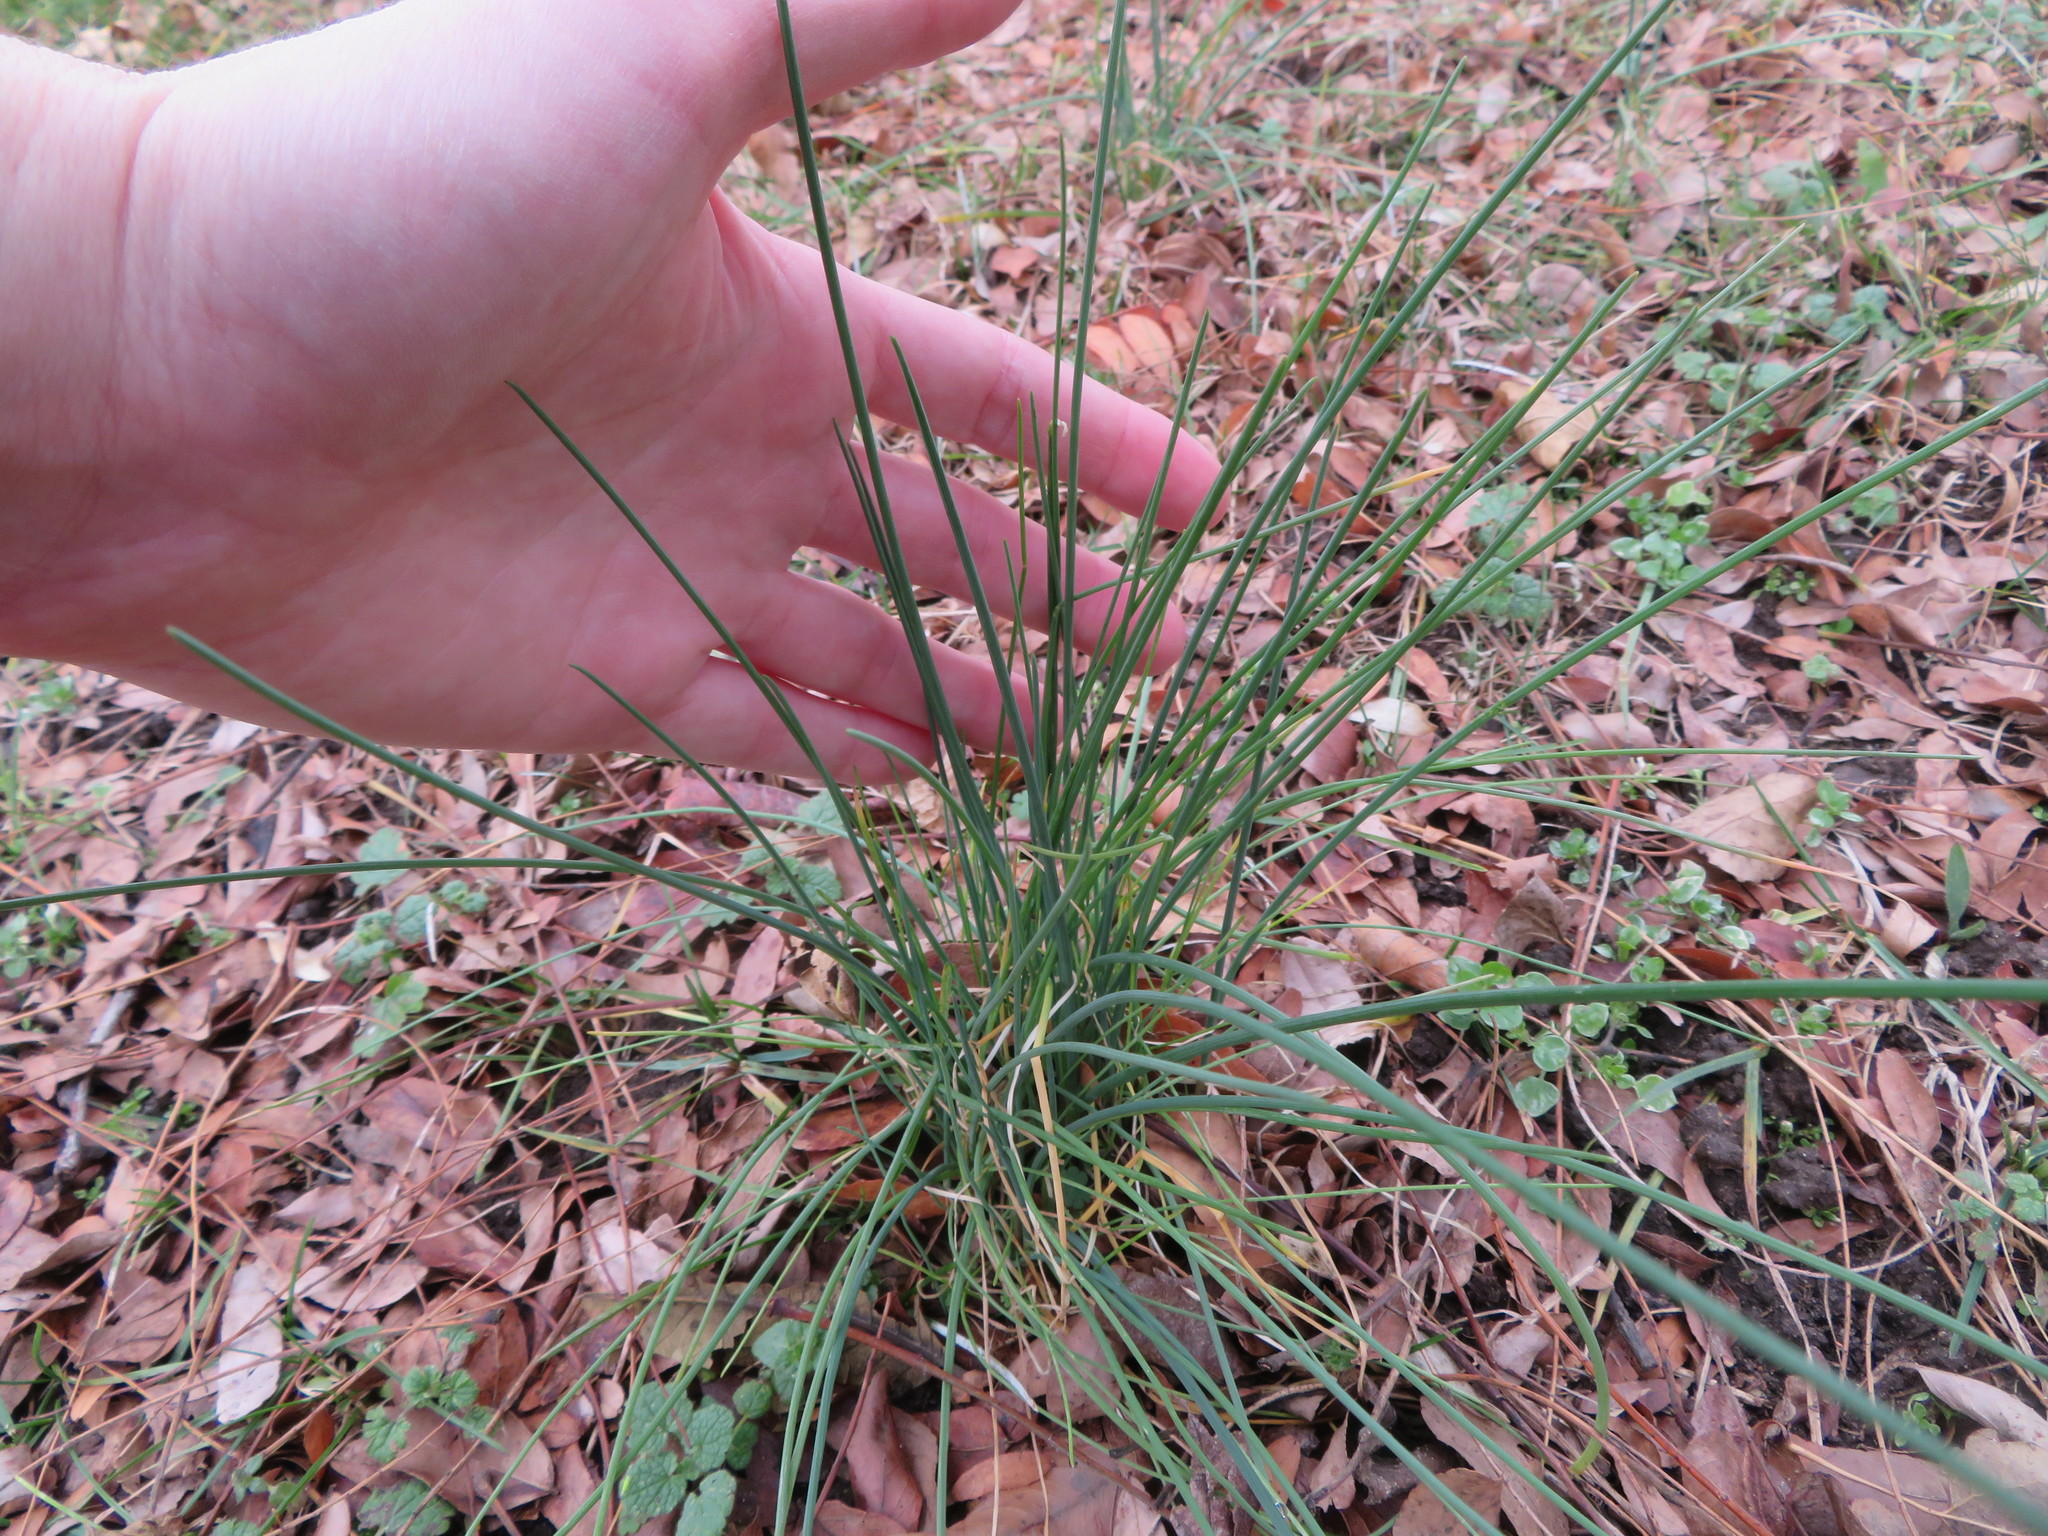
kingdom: Plantae
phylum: Tracheophyta
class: Liliopsida
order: Asparagales
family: Amaryllidaceae
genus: Allium
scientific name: Allium vineale
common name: Crow garlic
